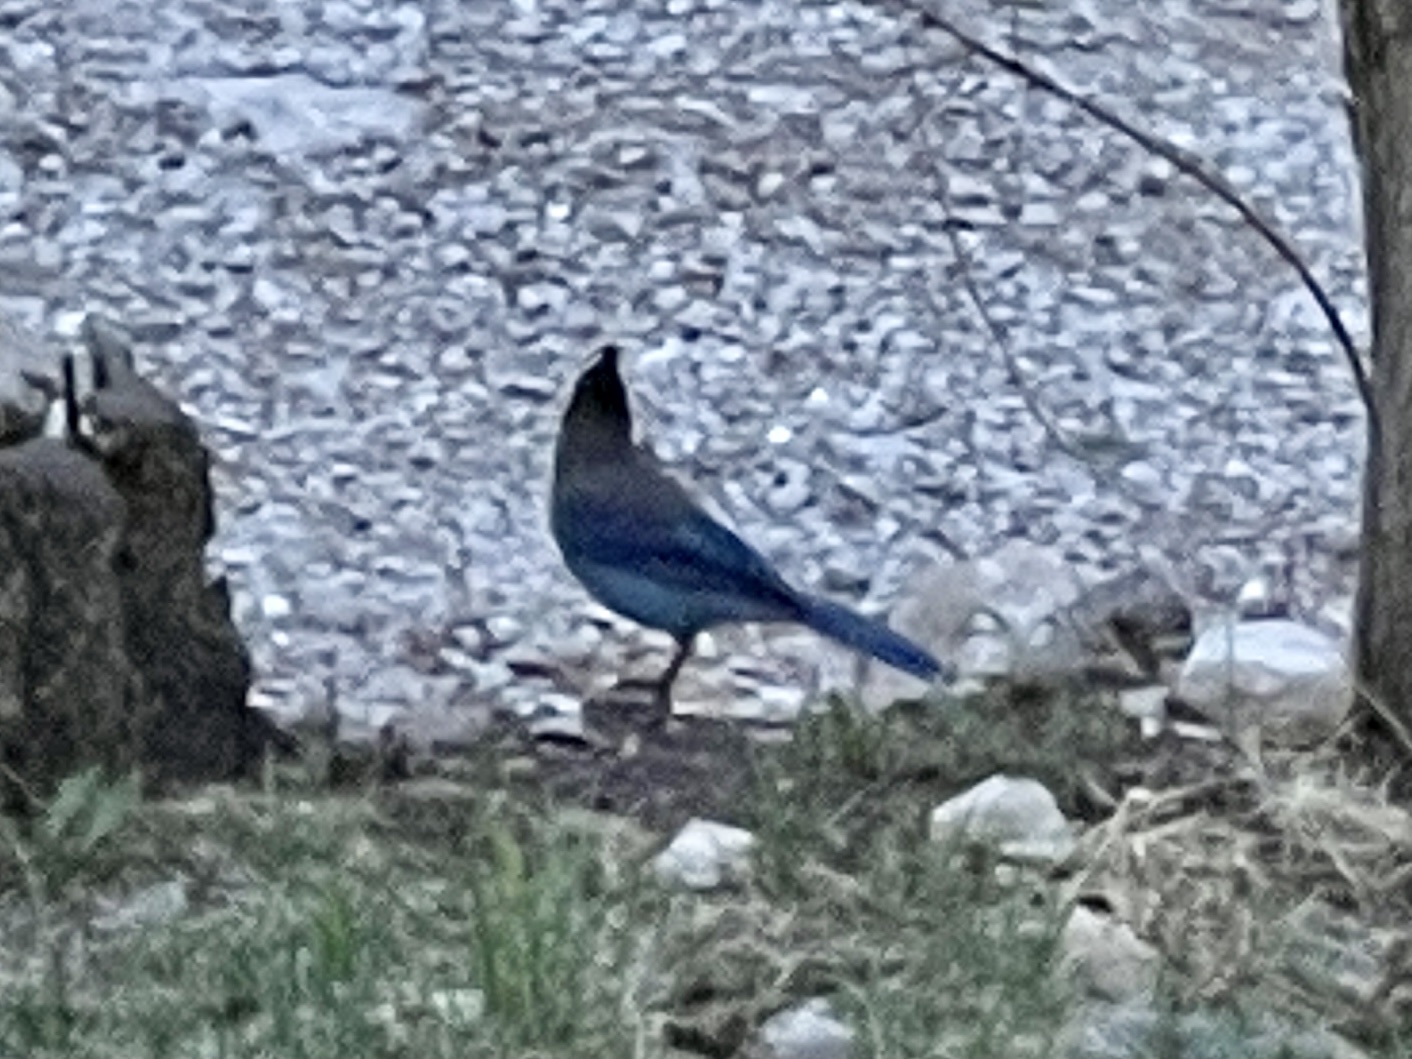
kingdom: Animalia
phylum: Chordata
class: Aves
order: Passeriformes
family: Corvidae
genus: Cyanocitta
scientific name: Cyanocitta stelleri
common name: Steller's jay
